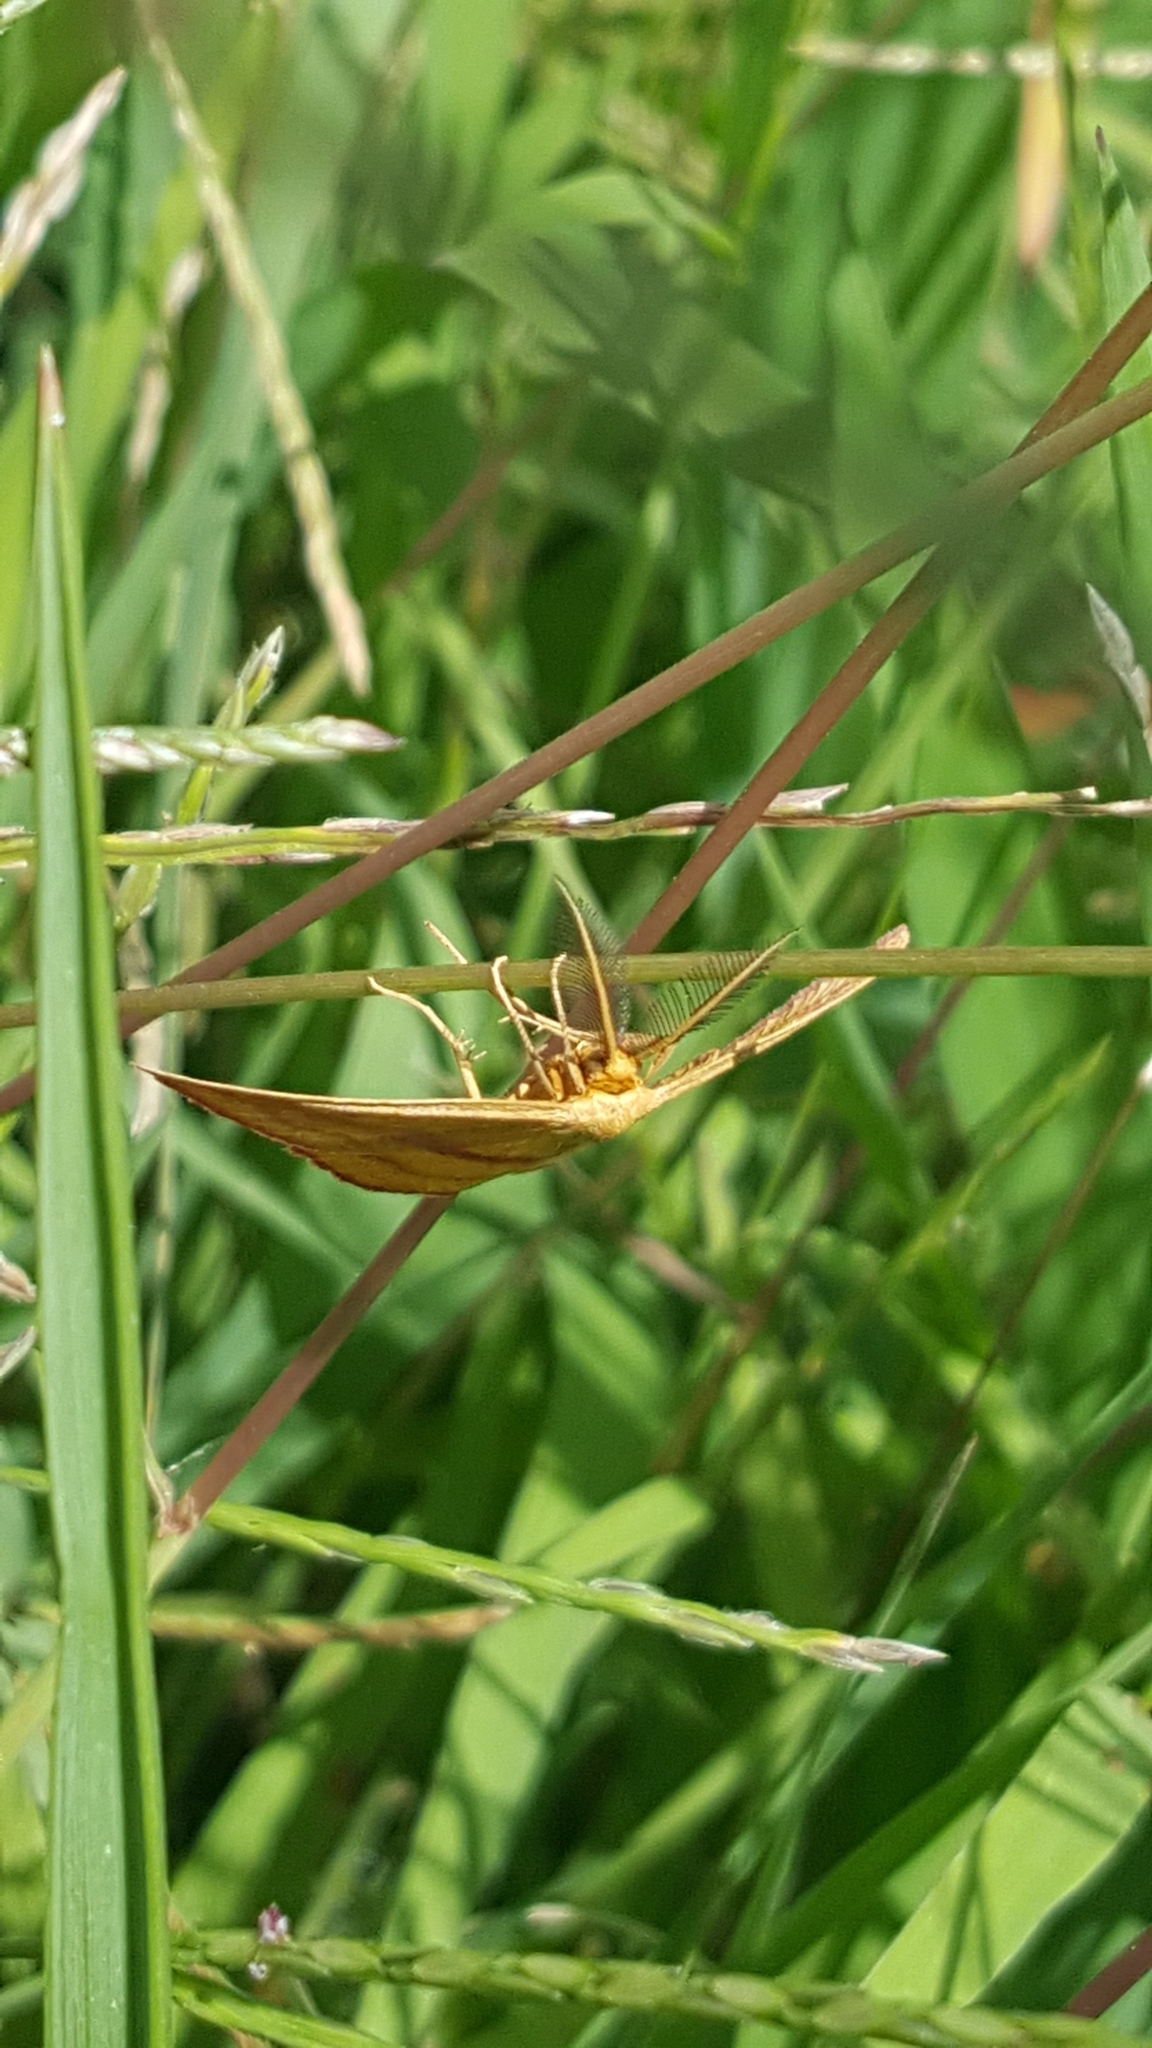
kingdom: Animalia
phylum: Arthropoda
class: Insecta
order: Lepidoptera
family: Geometridae
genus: Haematopis
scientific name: Haematopis grataria
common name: Chickweed geometer
